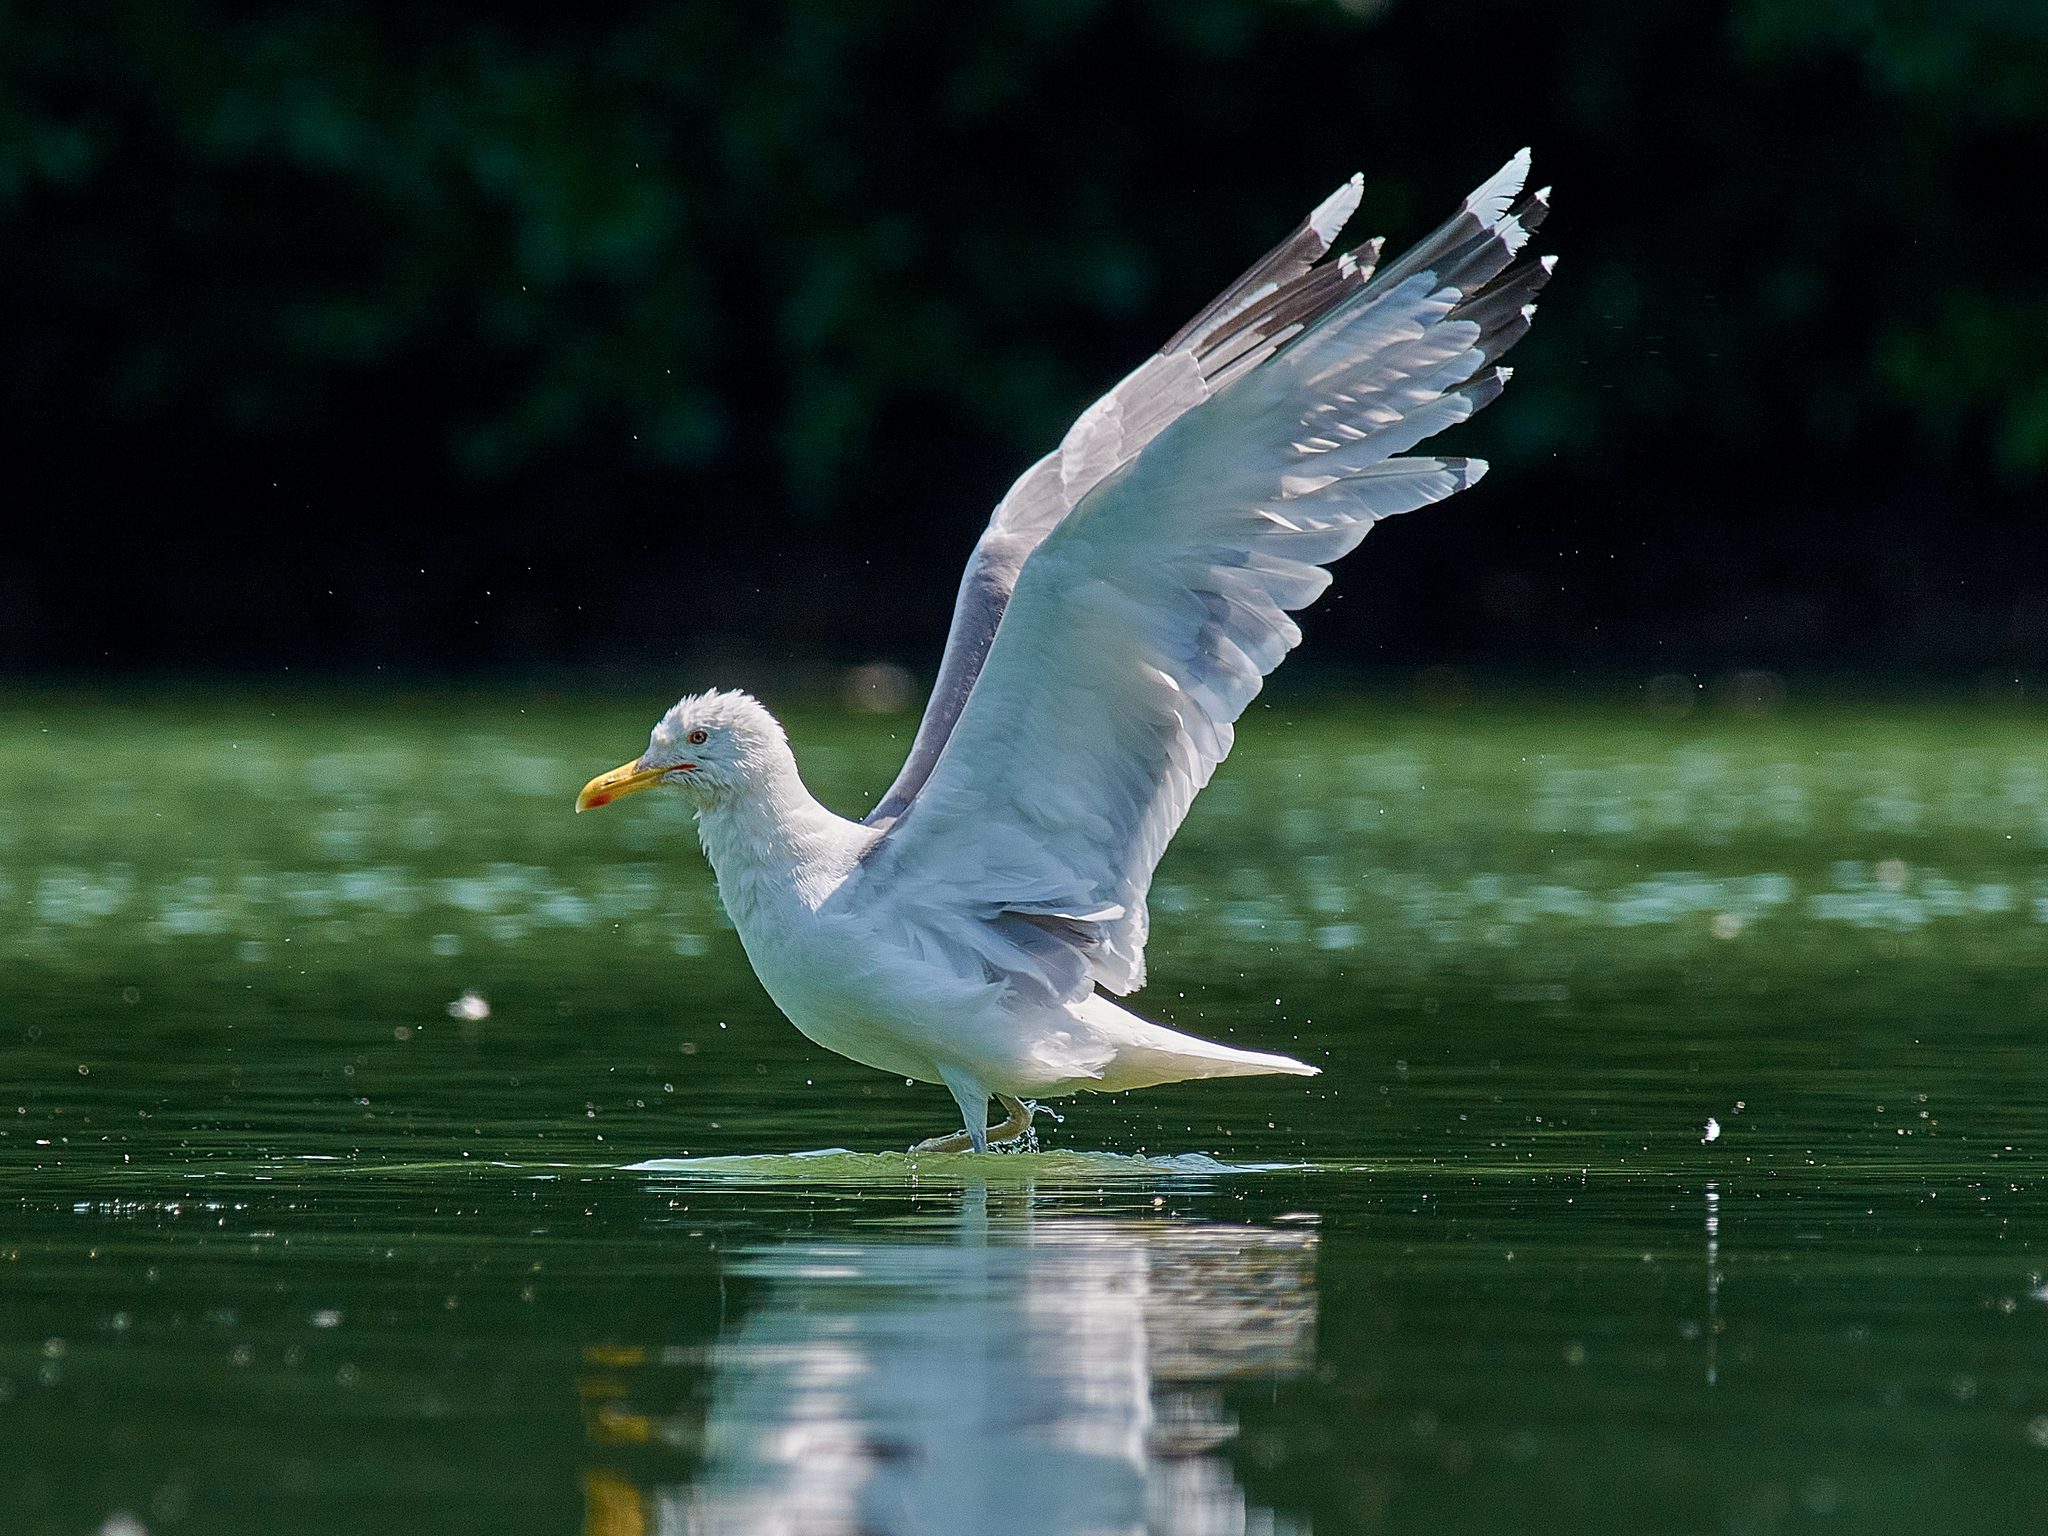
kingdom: Animalia
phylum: Chordata
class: Aves
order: Charadriiformes
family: Laridae
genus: Larus
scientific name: Larus argentatus
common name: Herring gull
